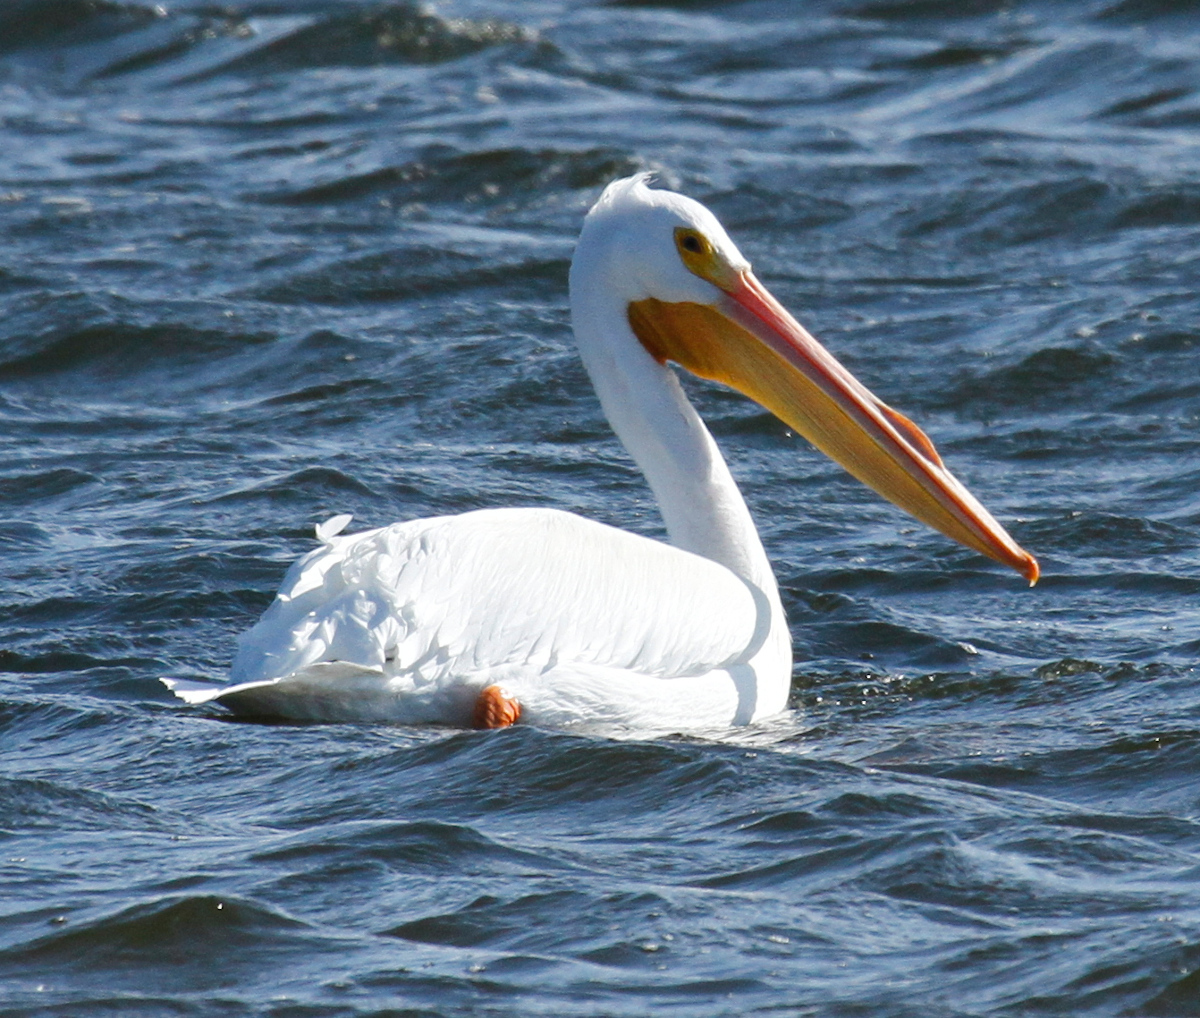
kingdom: Animalia
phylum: Chordata
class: Aves
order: Pelecaniformes
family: Pelecanidae
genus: Pelecanus
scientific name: Pelecanus erythrorhynchos
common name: American white pelican
